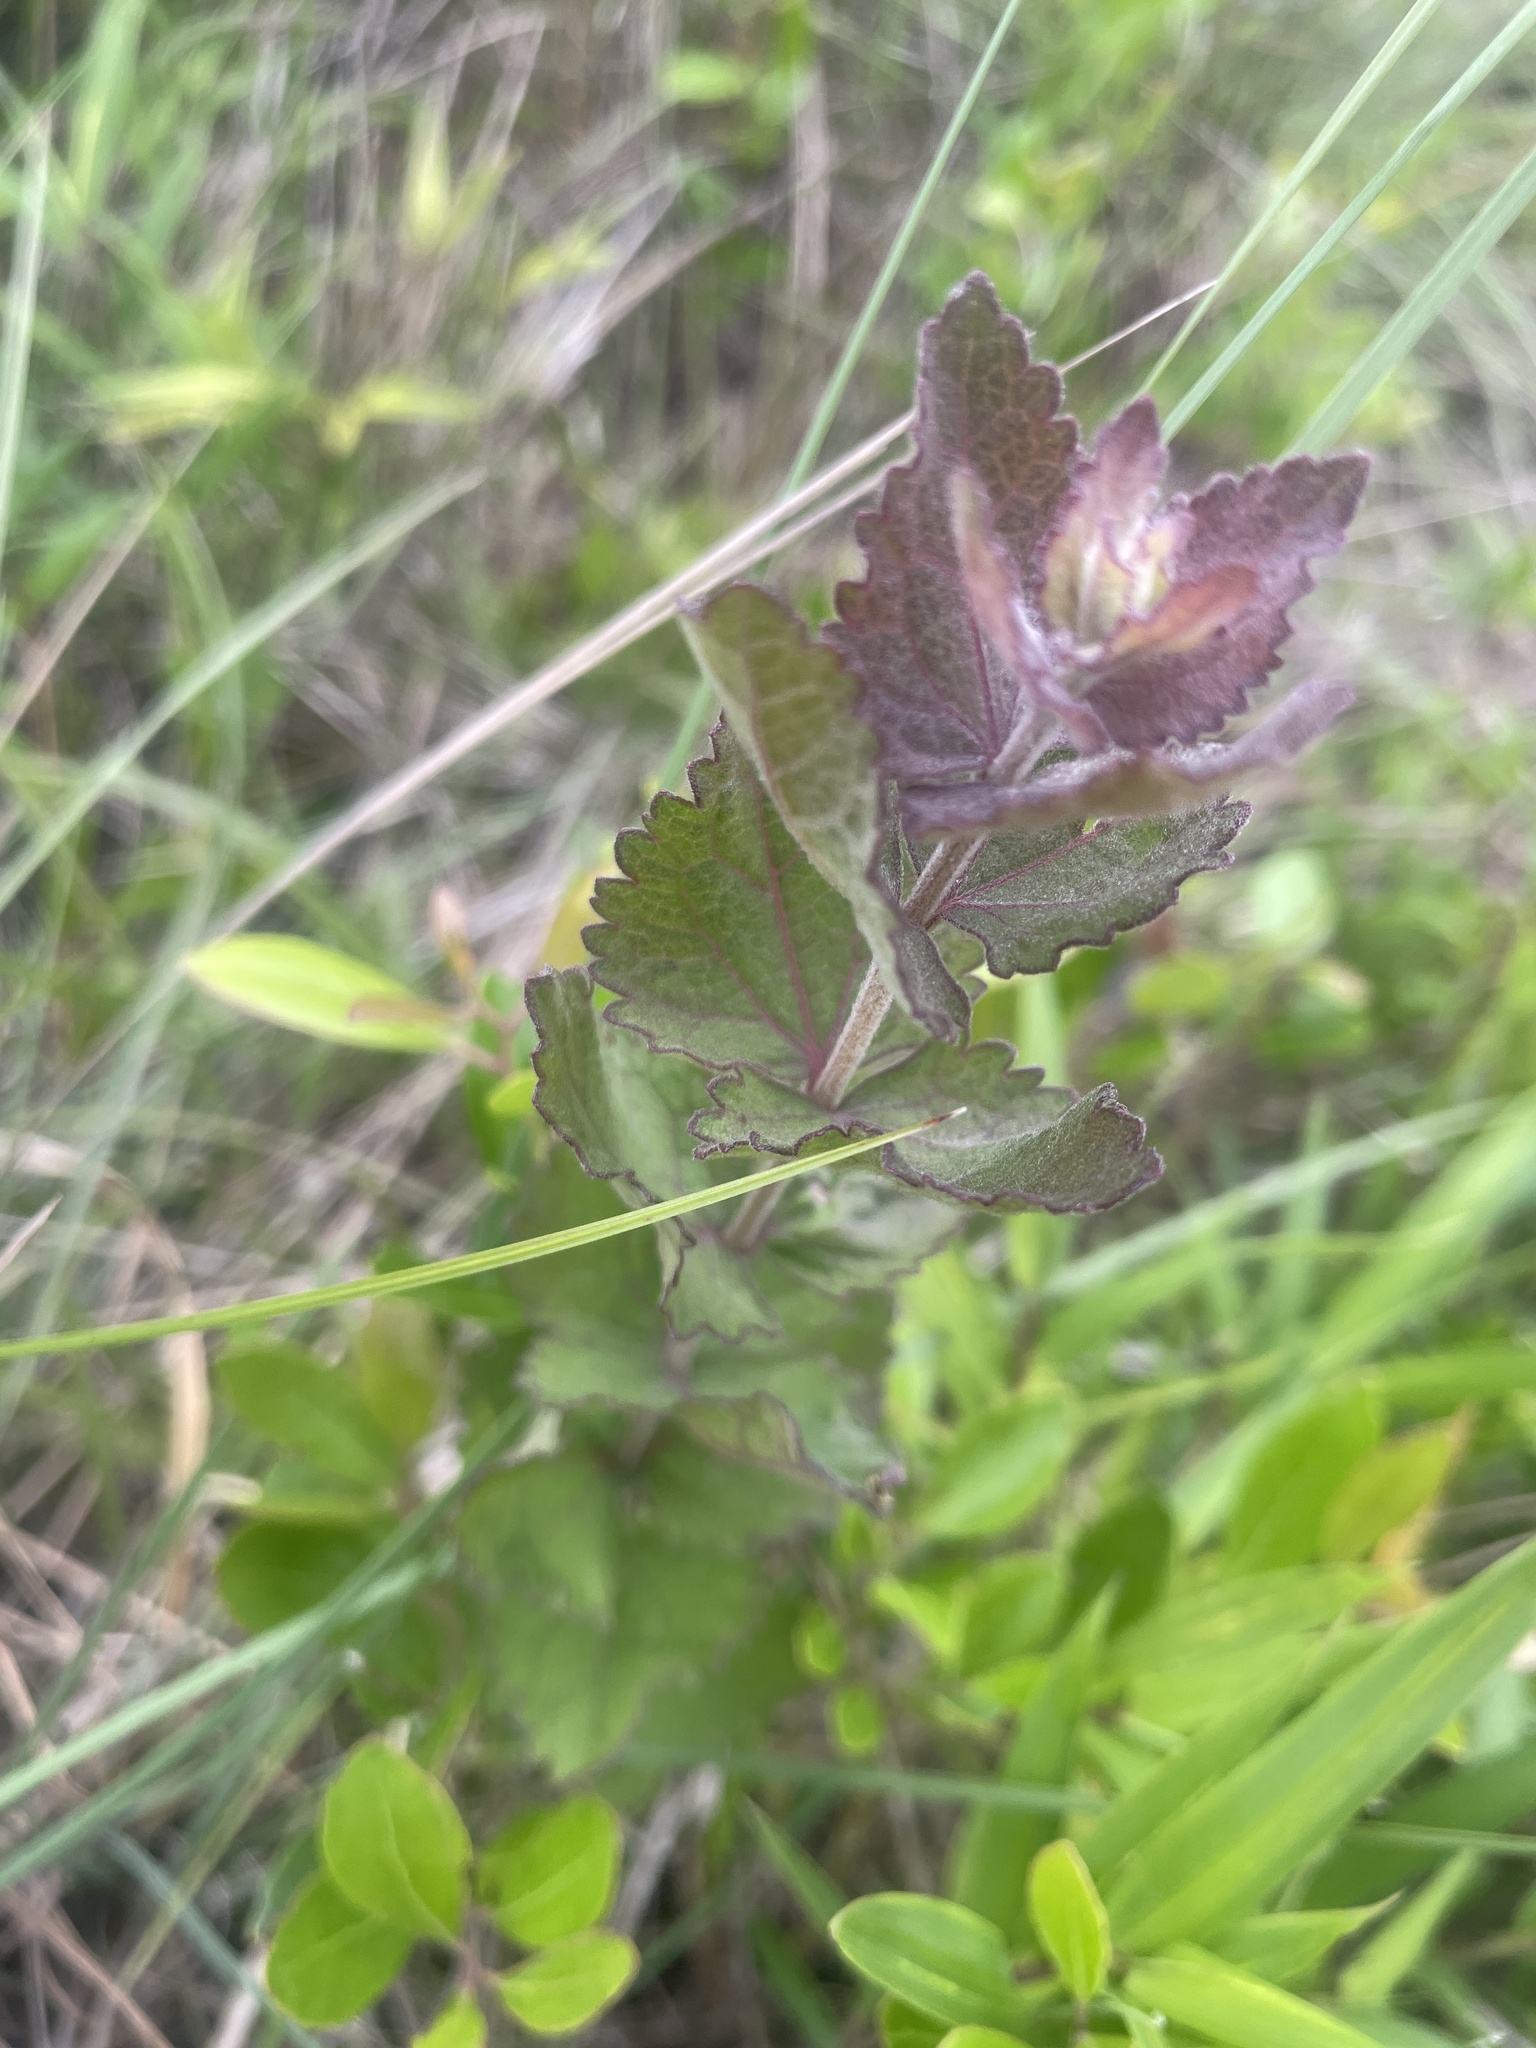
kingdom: Plantae
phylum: Tracheophyta
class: Magnoliopsida
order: Asterales
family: Asteraceae
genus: Eupatorium
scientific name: Eupatorium rotundifolium
